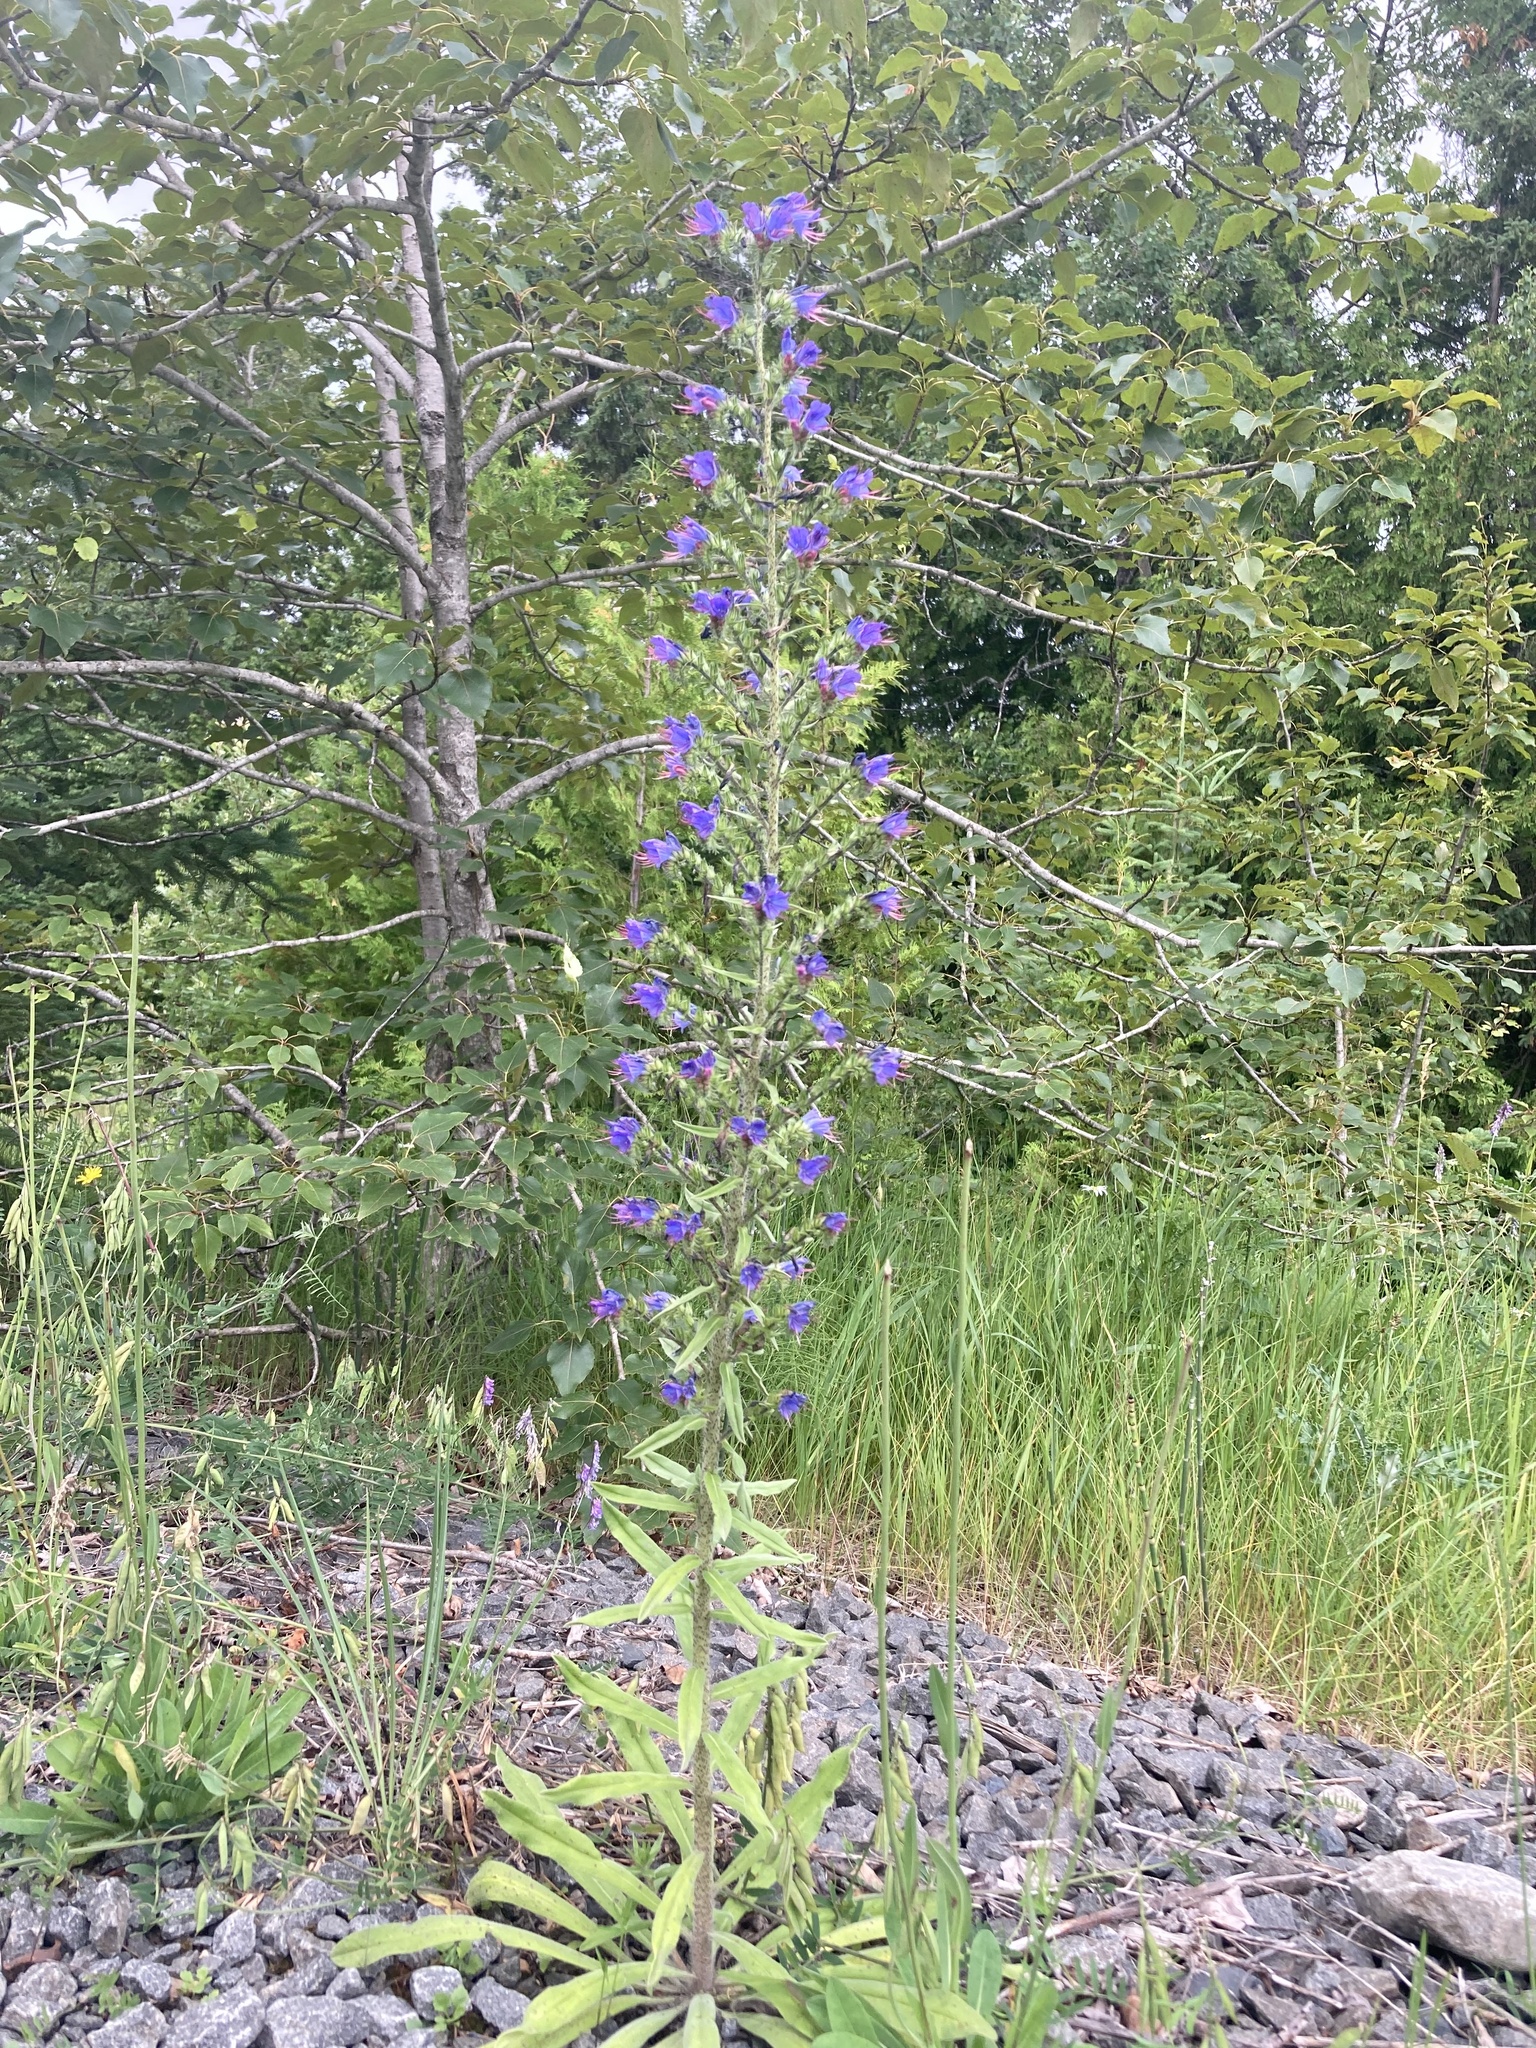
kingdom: Plantae
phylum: Tracheophyta
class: Magnoliopsida
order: Boraginales
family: Boraginaceae
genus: Echium
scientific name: Echium vulgare
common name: Common viper's bugloss
